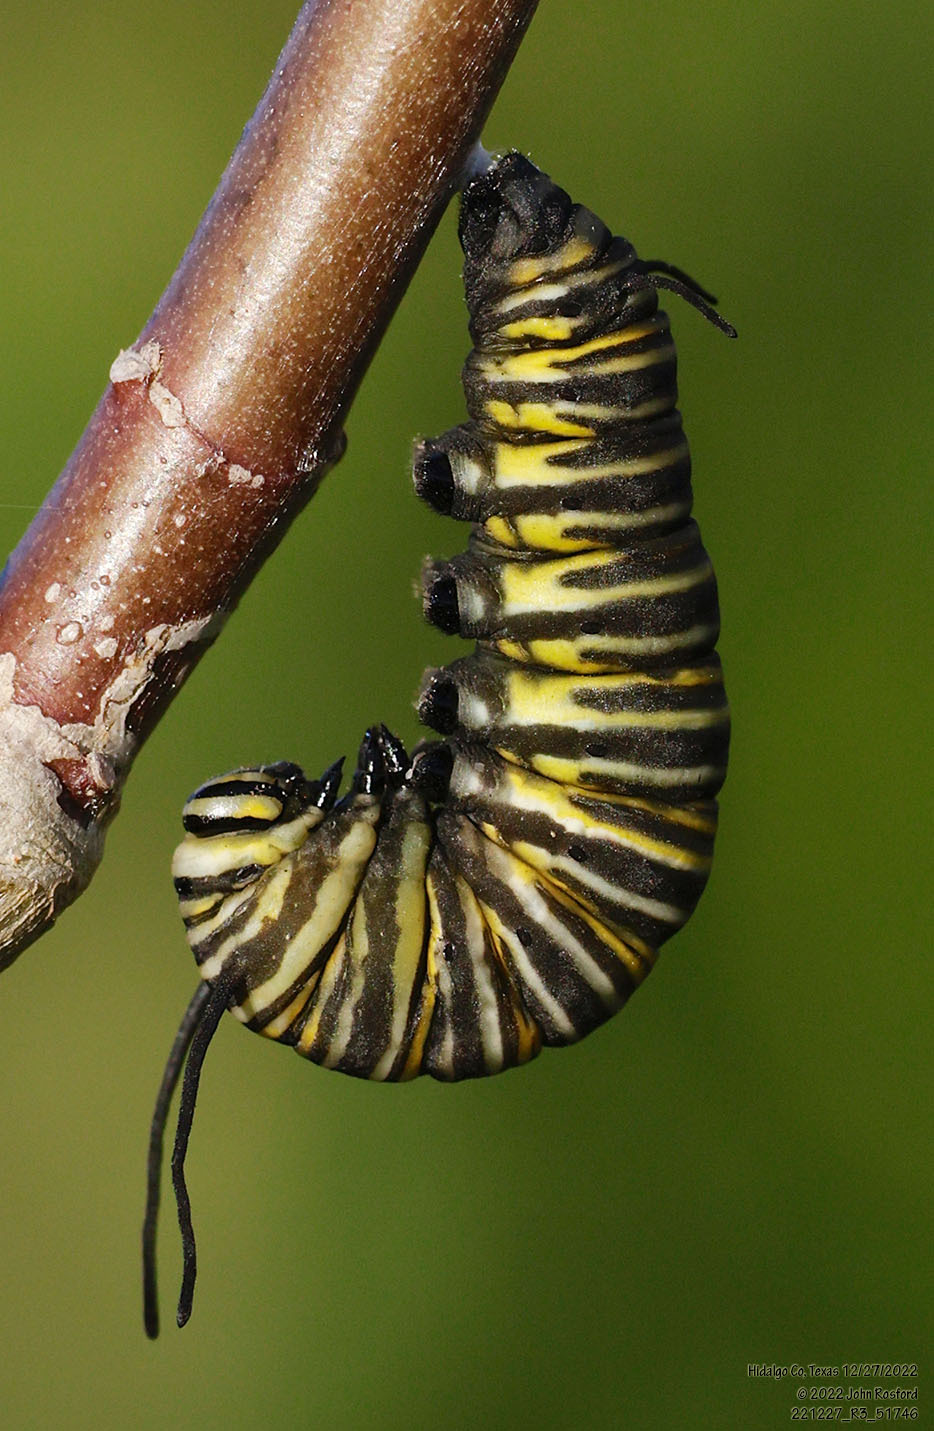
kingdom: Animalia
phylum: Arthropoda
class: Insecta
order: Lepidoptera
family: Nymphalidae
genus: Danaus
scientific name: Danaus plexippus
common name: Monarch
